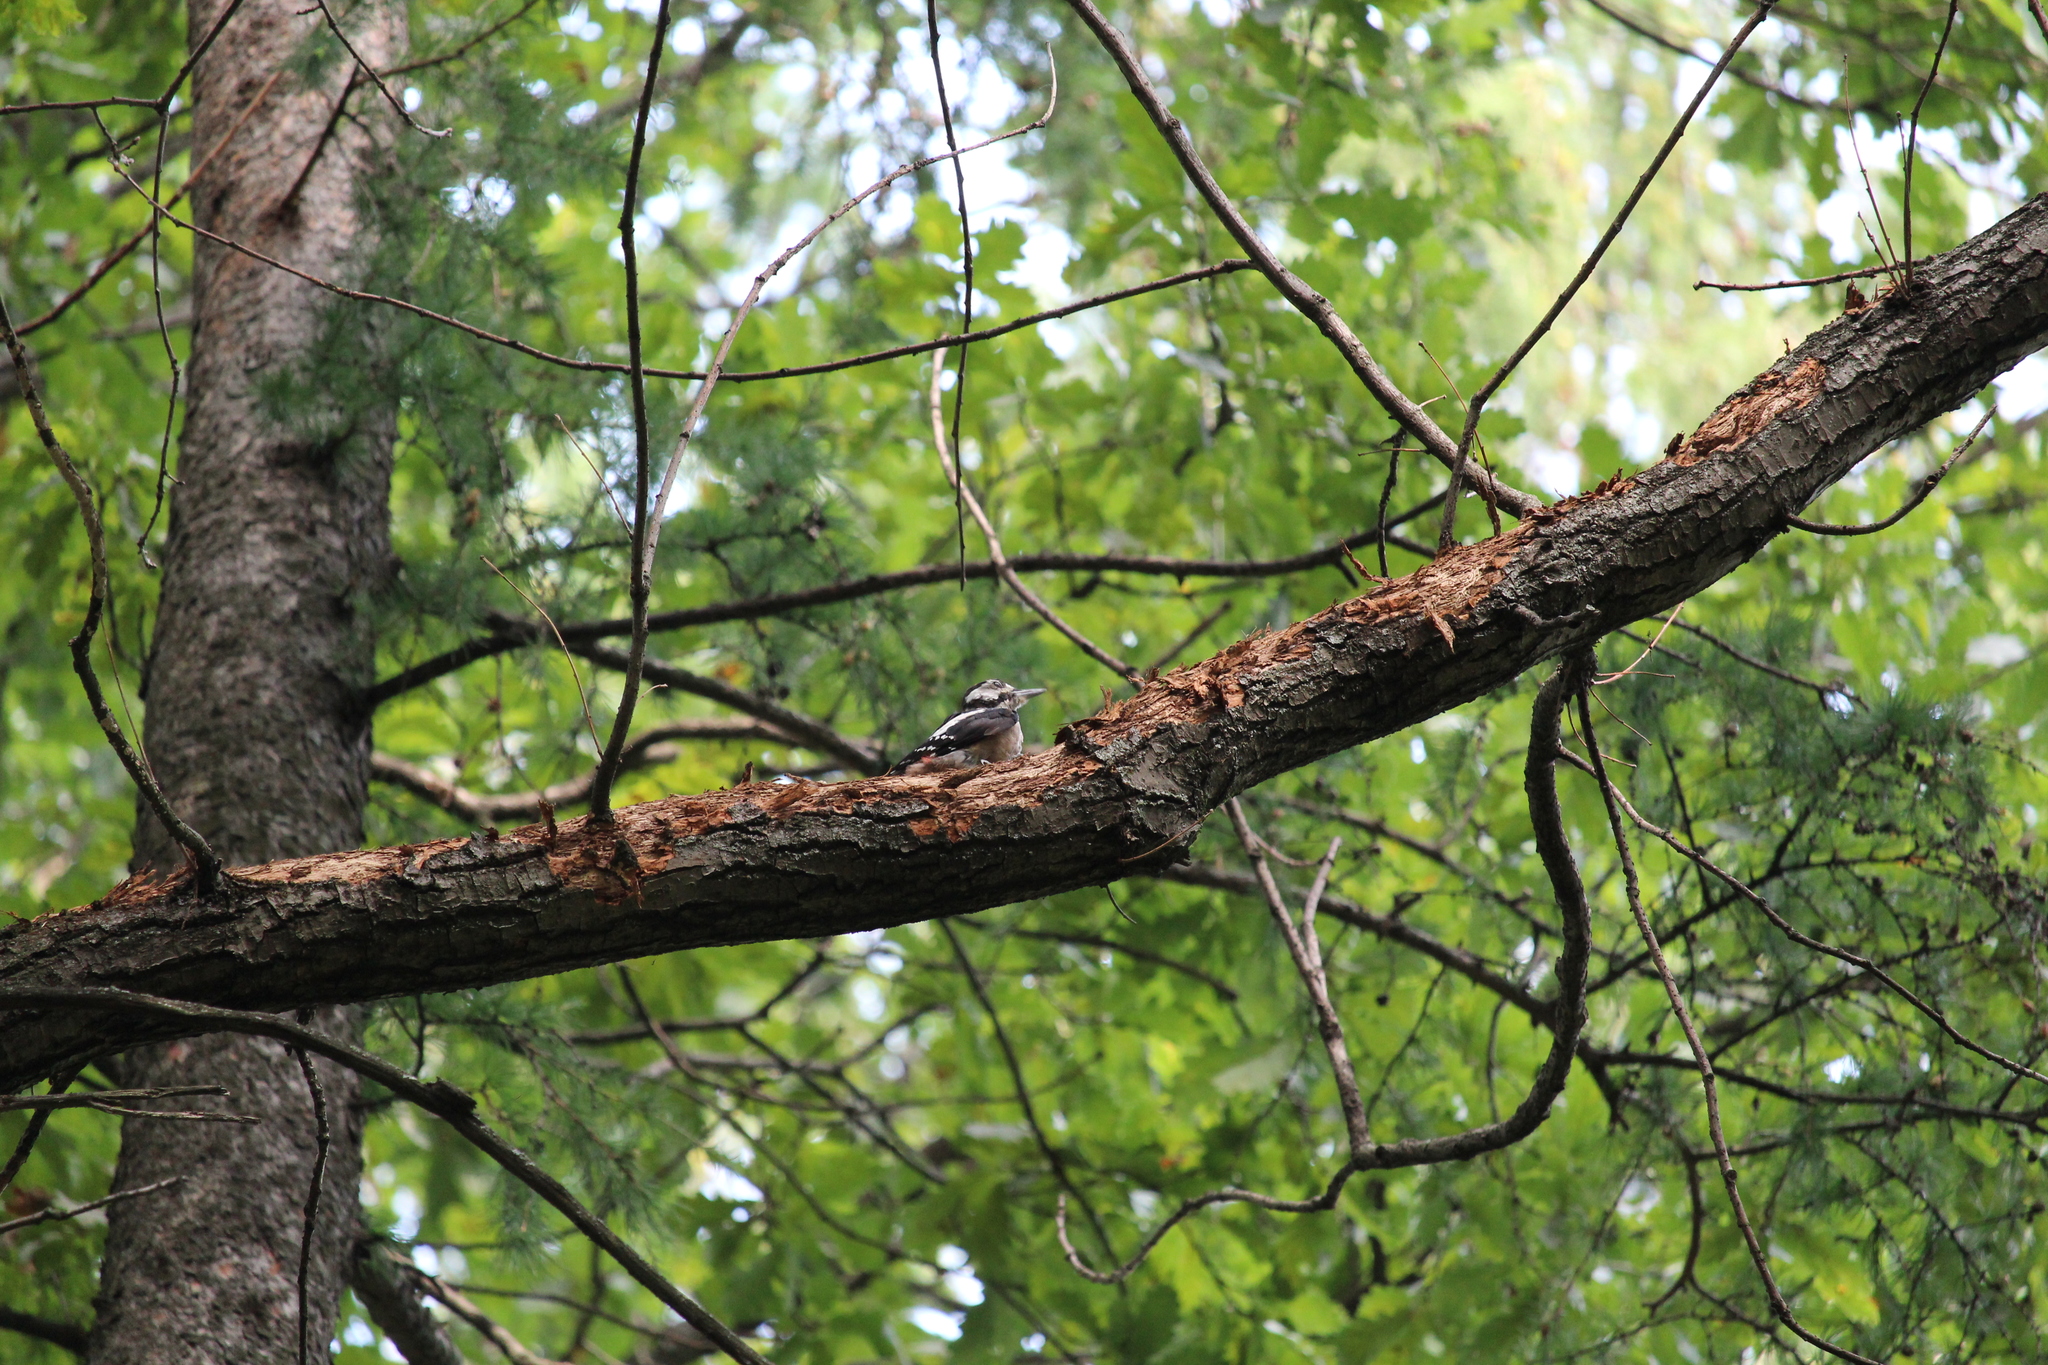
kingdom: Animalia
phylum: Chordata
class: Aves
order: Piciformes
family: Picidae
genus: Dendrocopos
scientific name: Dendrocopos major
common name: Great spotted woodpecker
